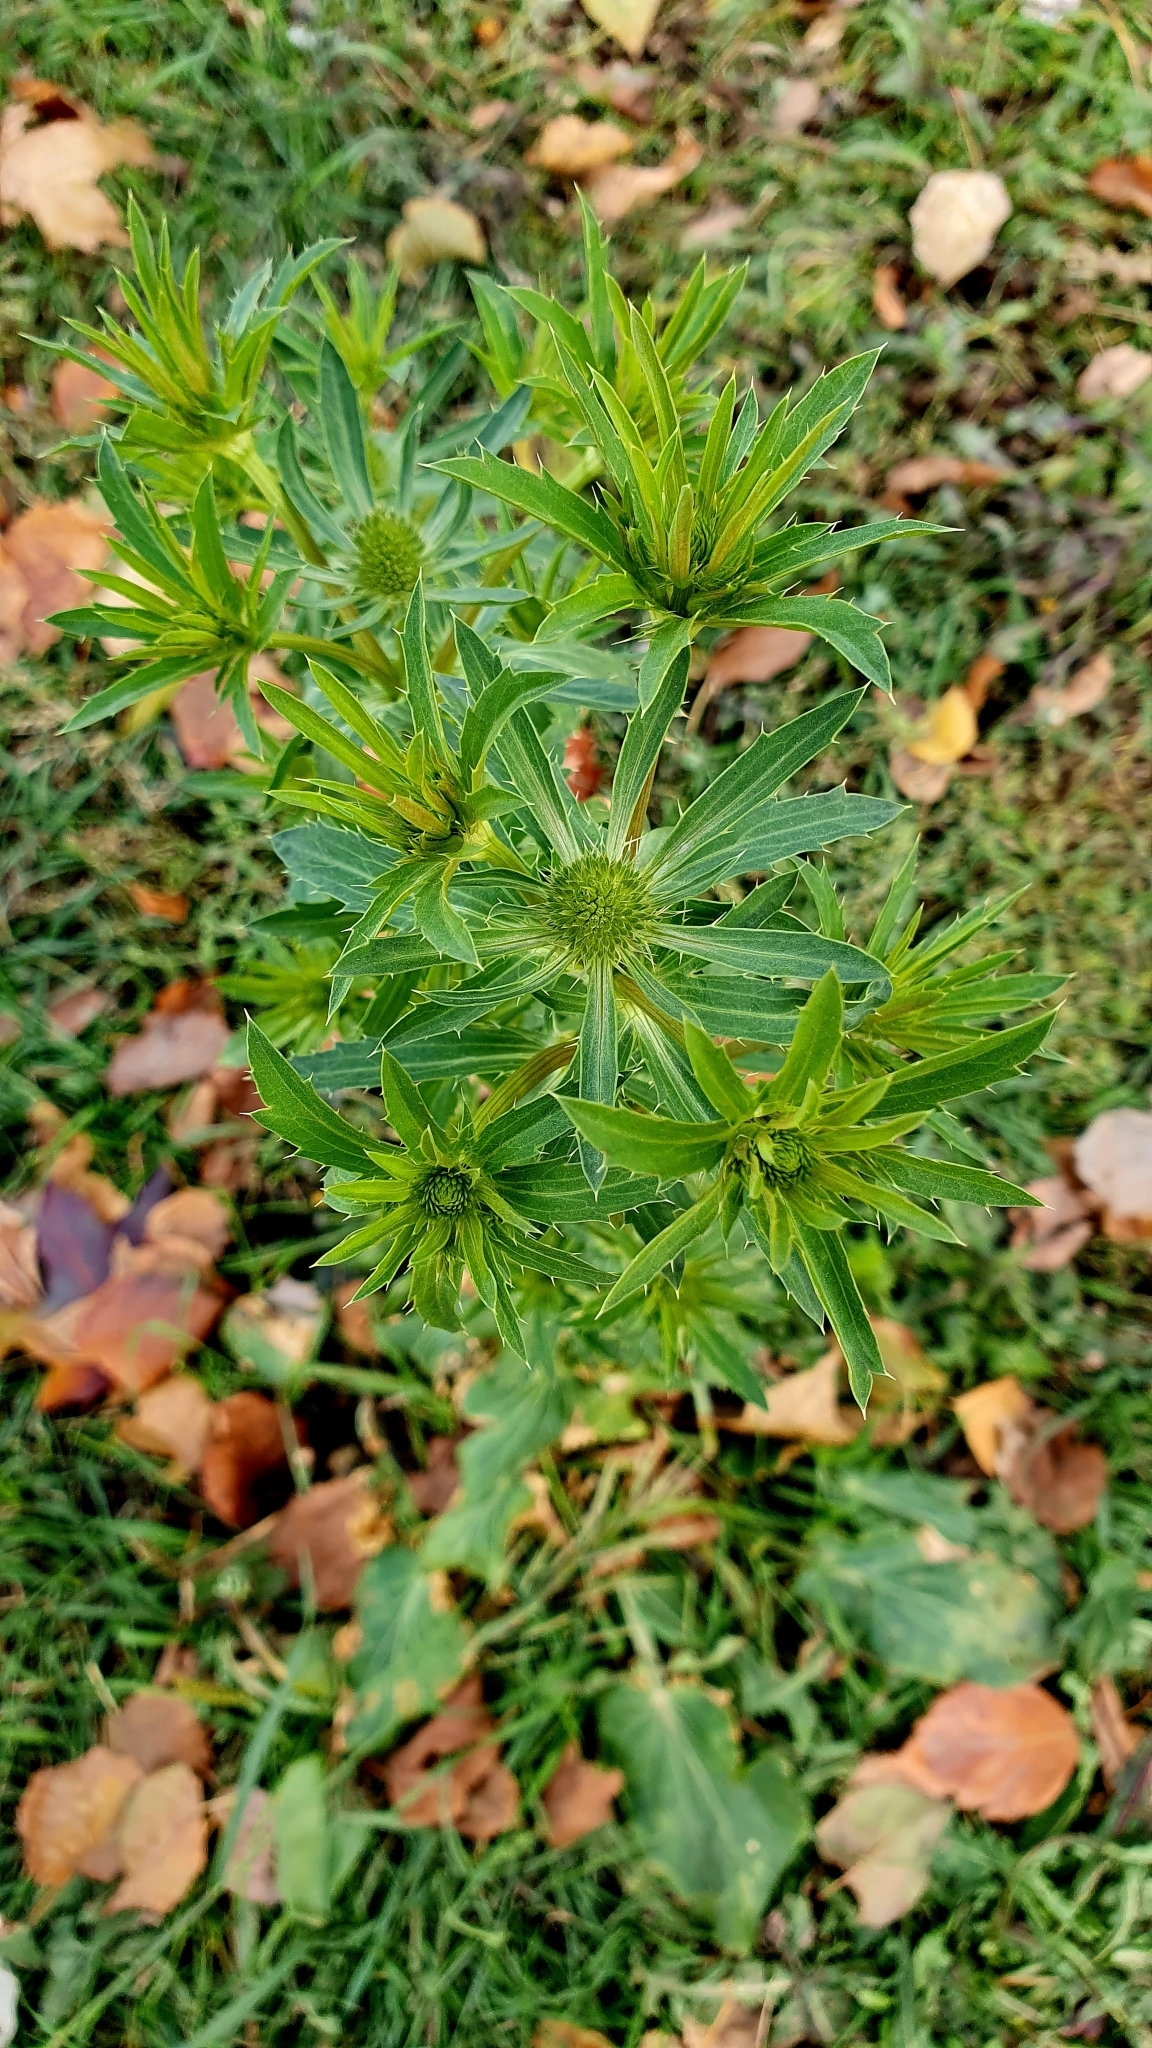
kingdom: Plantae
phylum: Tracheophyta
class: Magnoliopsida
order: Apiales
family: Apiaceae
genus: Eryngium
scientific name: Eryngium planum
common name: Blue eryngo
